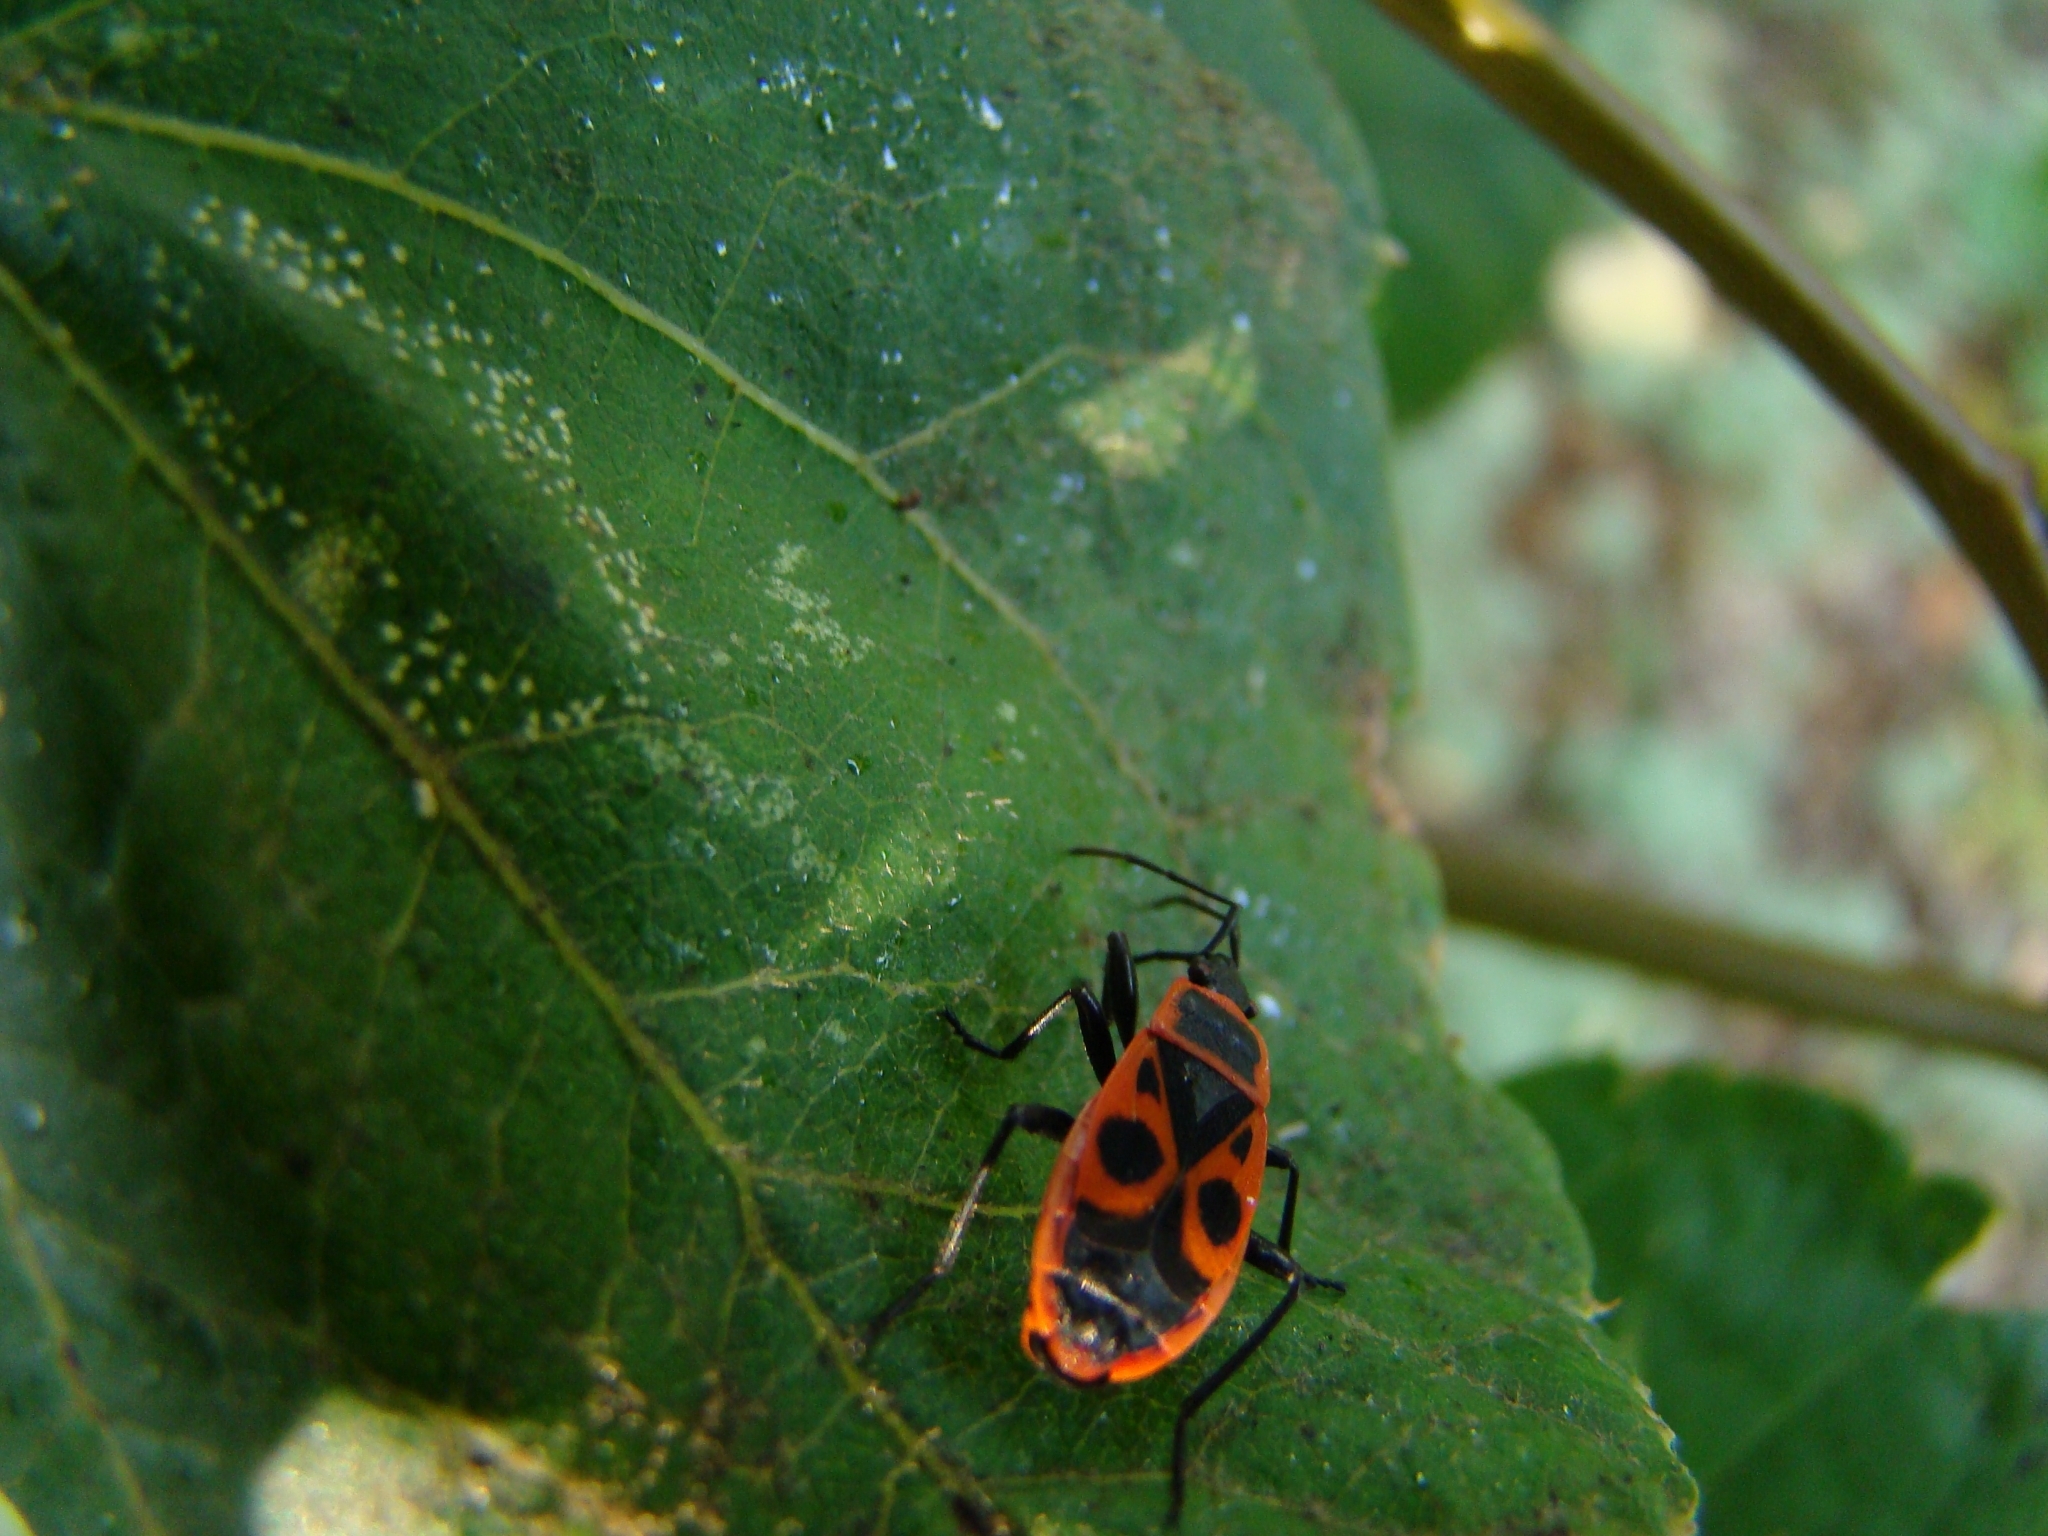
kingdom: Animalia
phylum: Arthropoda
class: Insecta
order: Hemiptera
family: Pyrrhocoridae
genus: Pyrrhocoris
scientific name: Pyrrhocoris apterus
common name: Firebug
